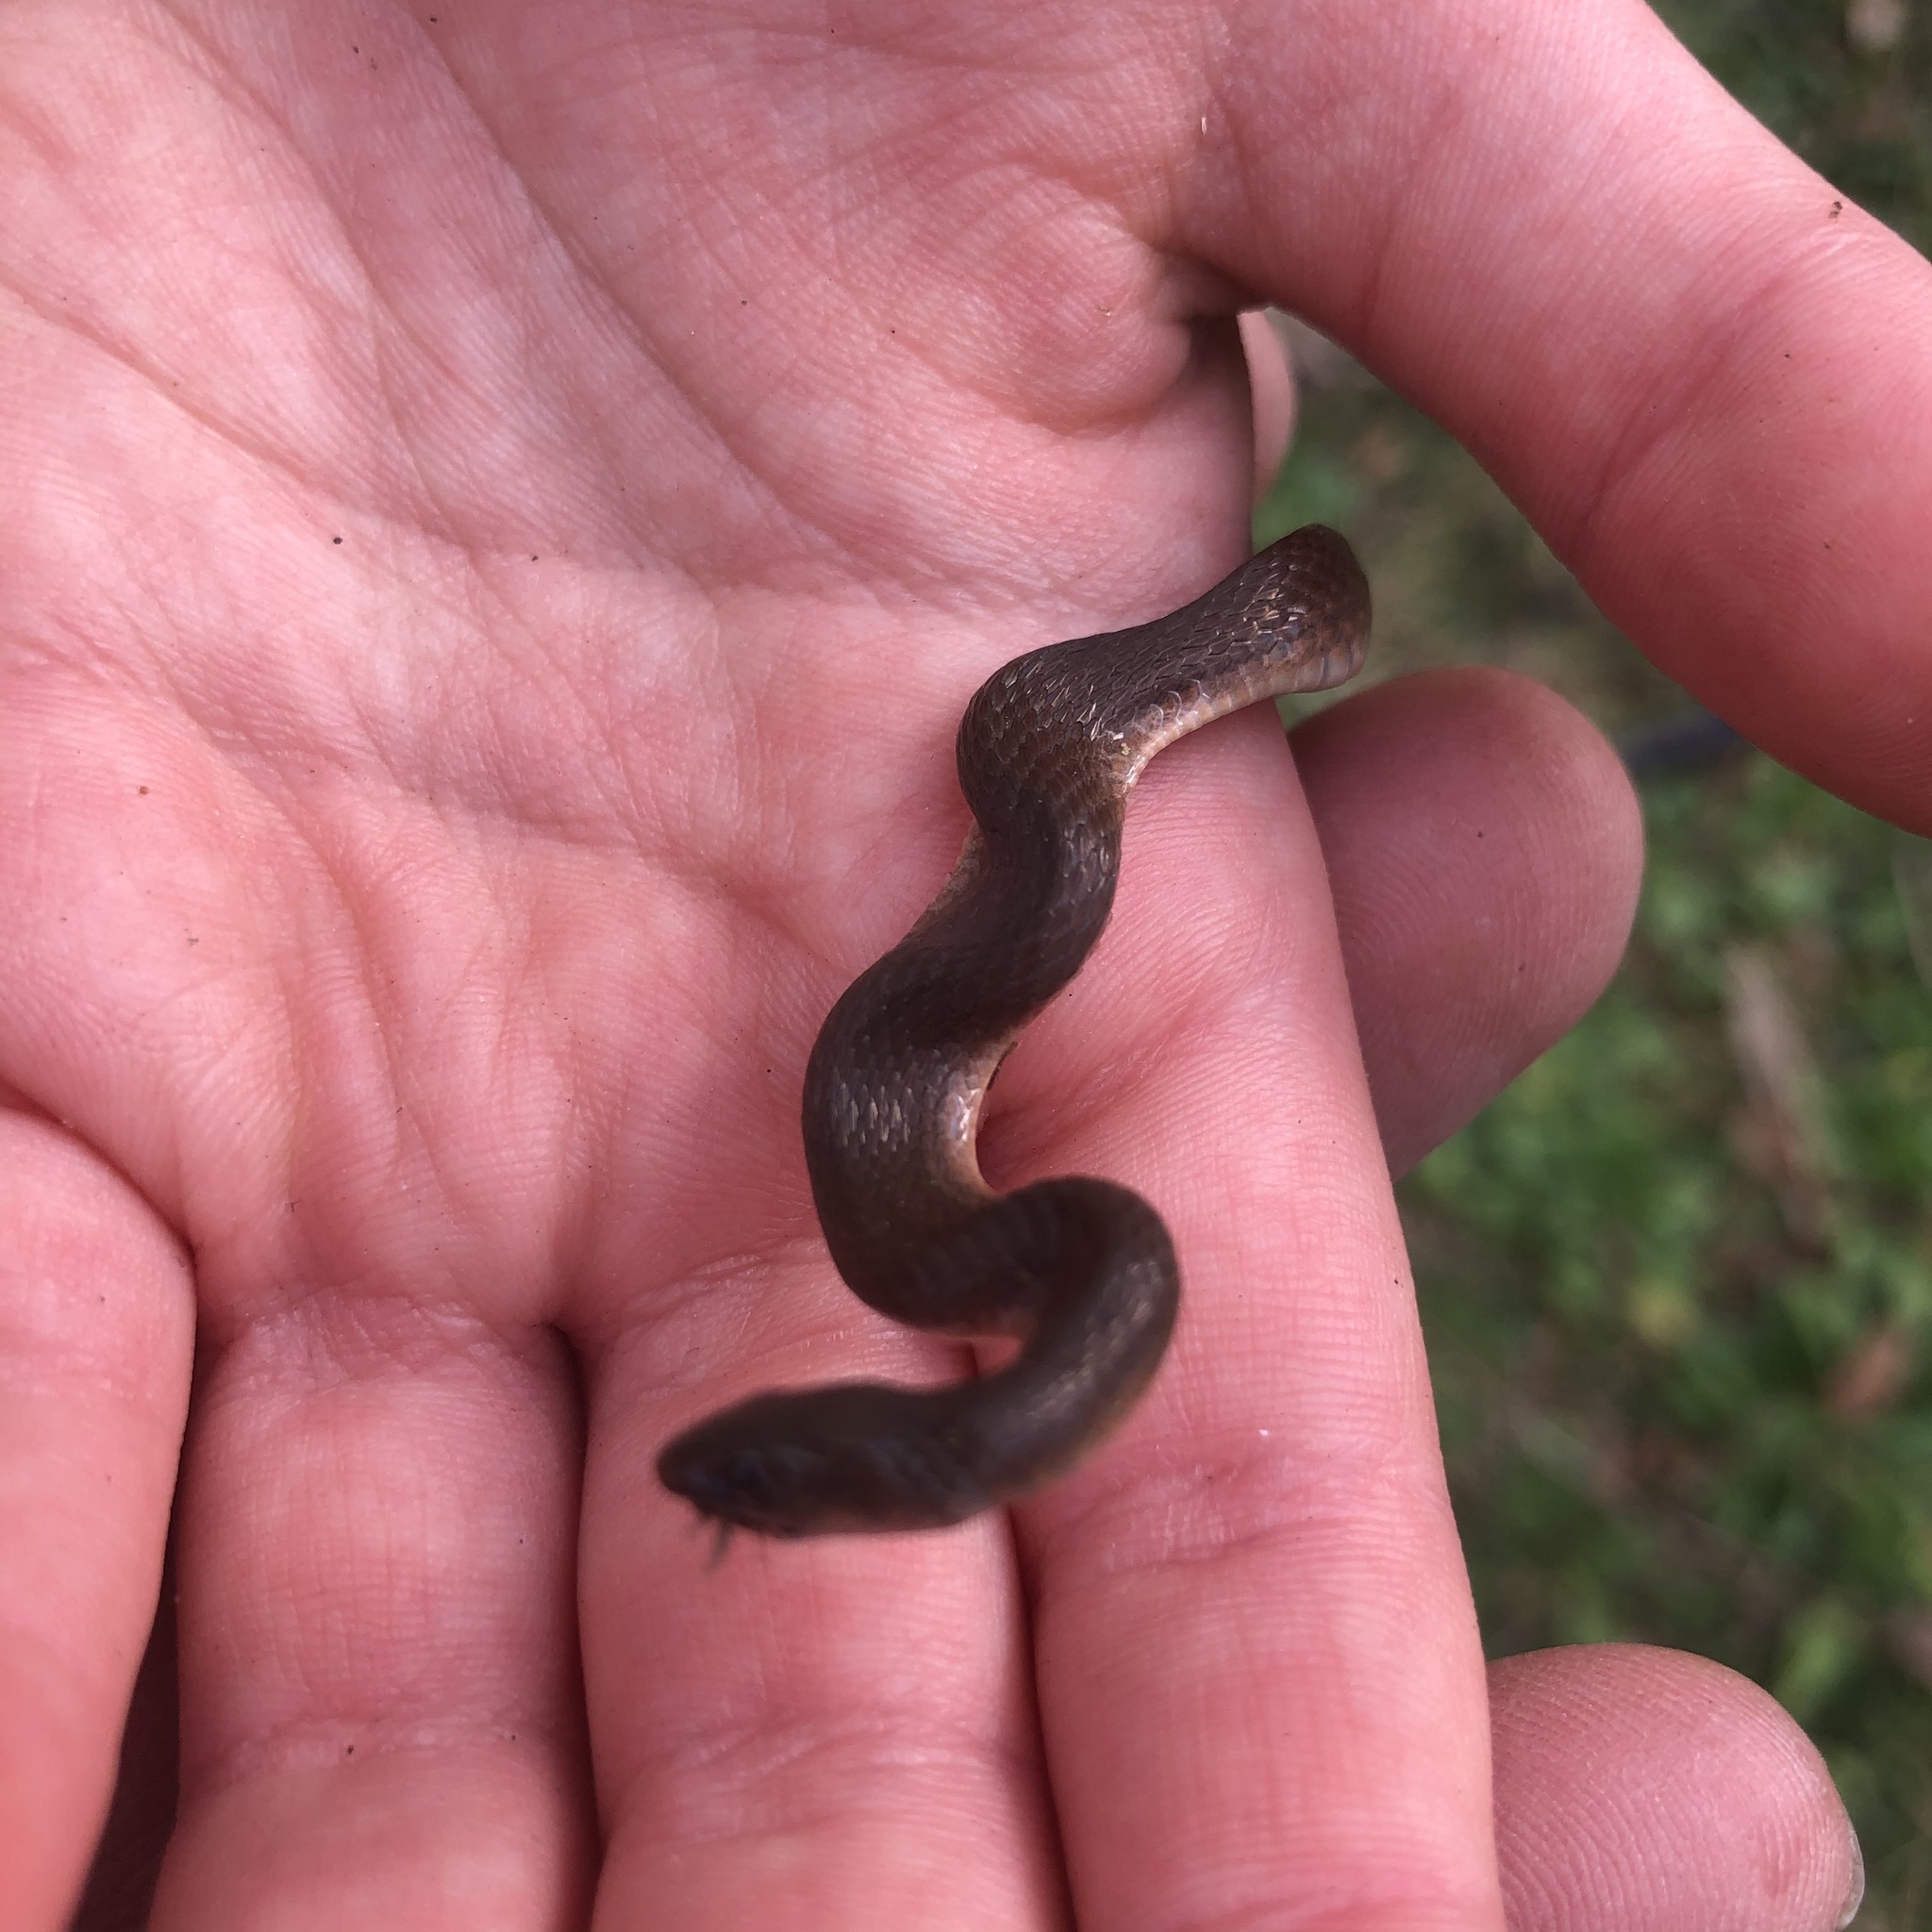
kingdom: Animalia
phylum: Chordata
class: Squamata
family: Colubridae
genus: Haldea
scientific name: Haldea striatula
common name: Rough earth snake
